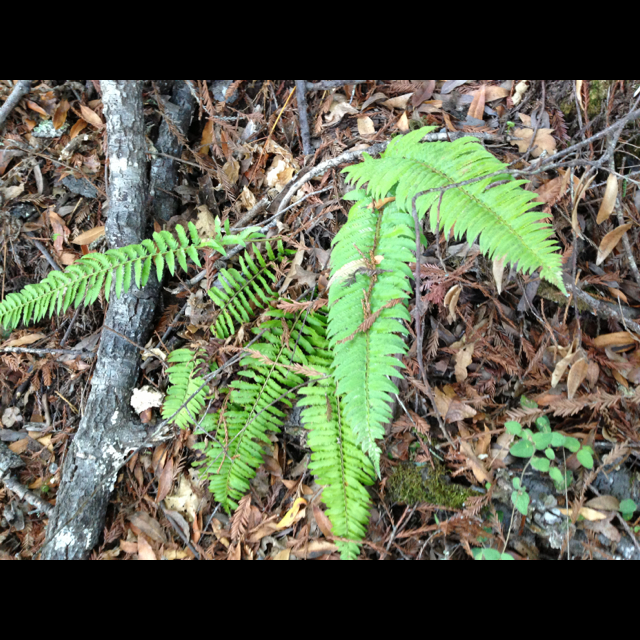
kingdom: Plantae
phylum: Tracheophyta
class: Polypodiopsida
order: Polypodiales
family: Dryopteridaceae
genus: Polystichum
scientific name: Polystichum munitum
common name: Western sword-fern
